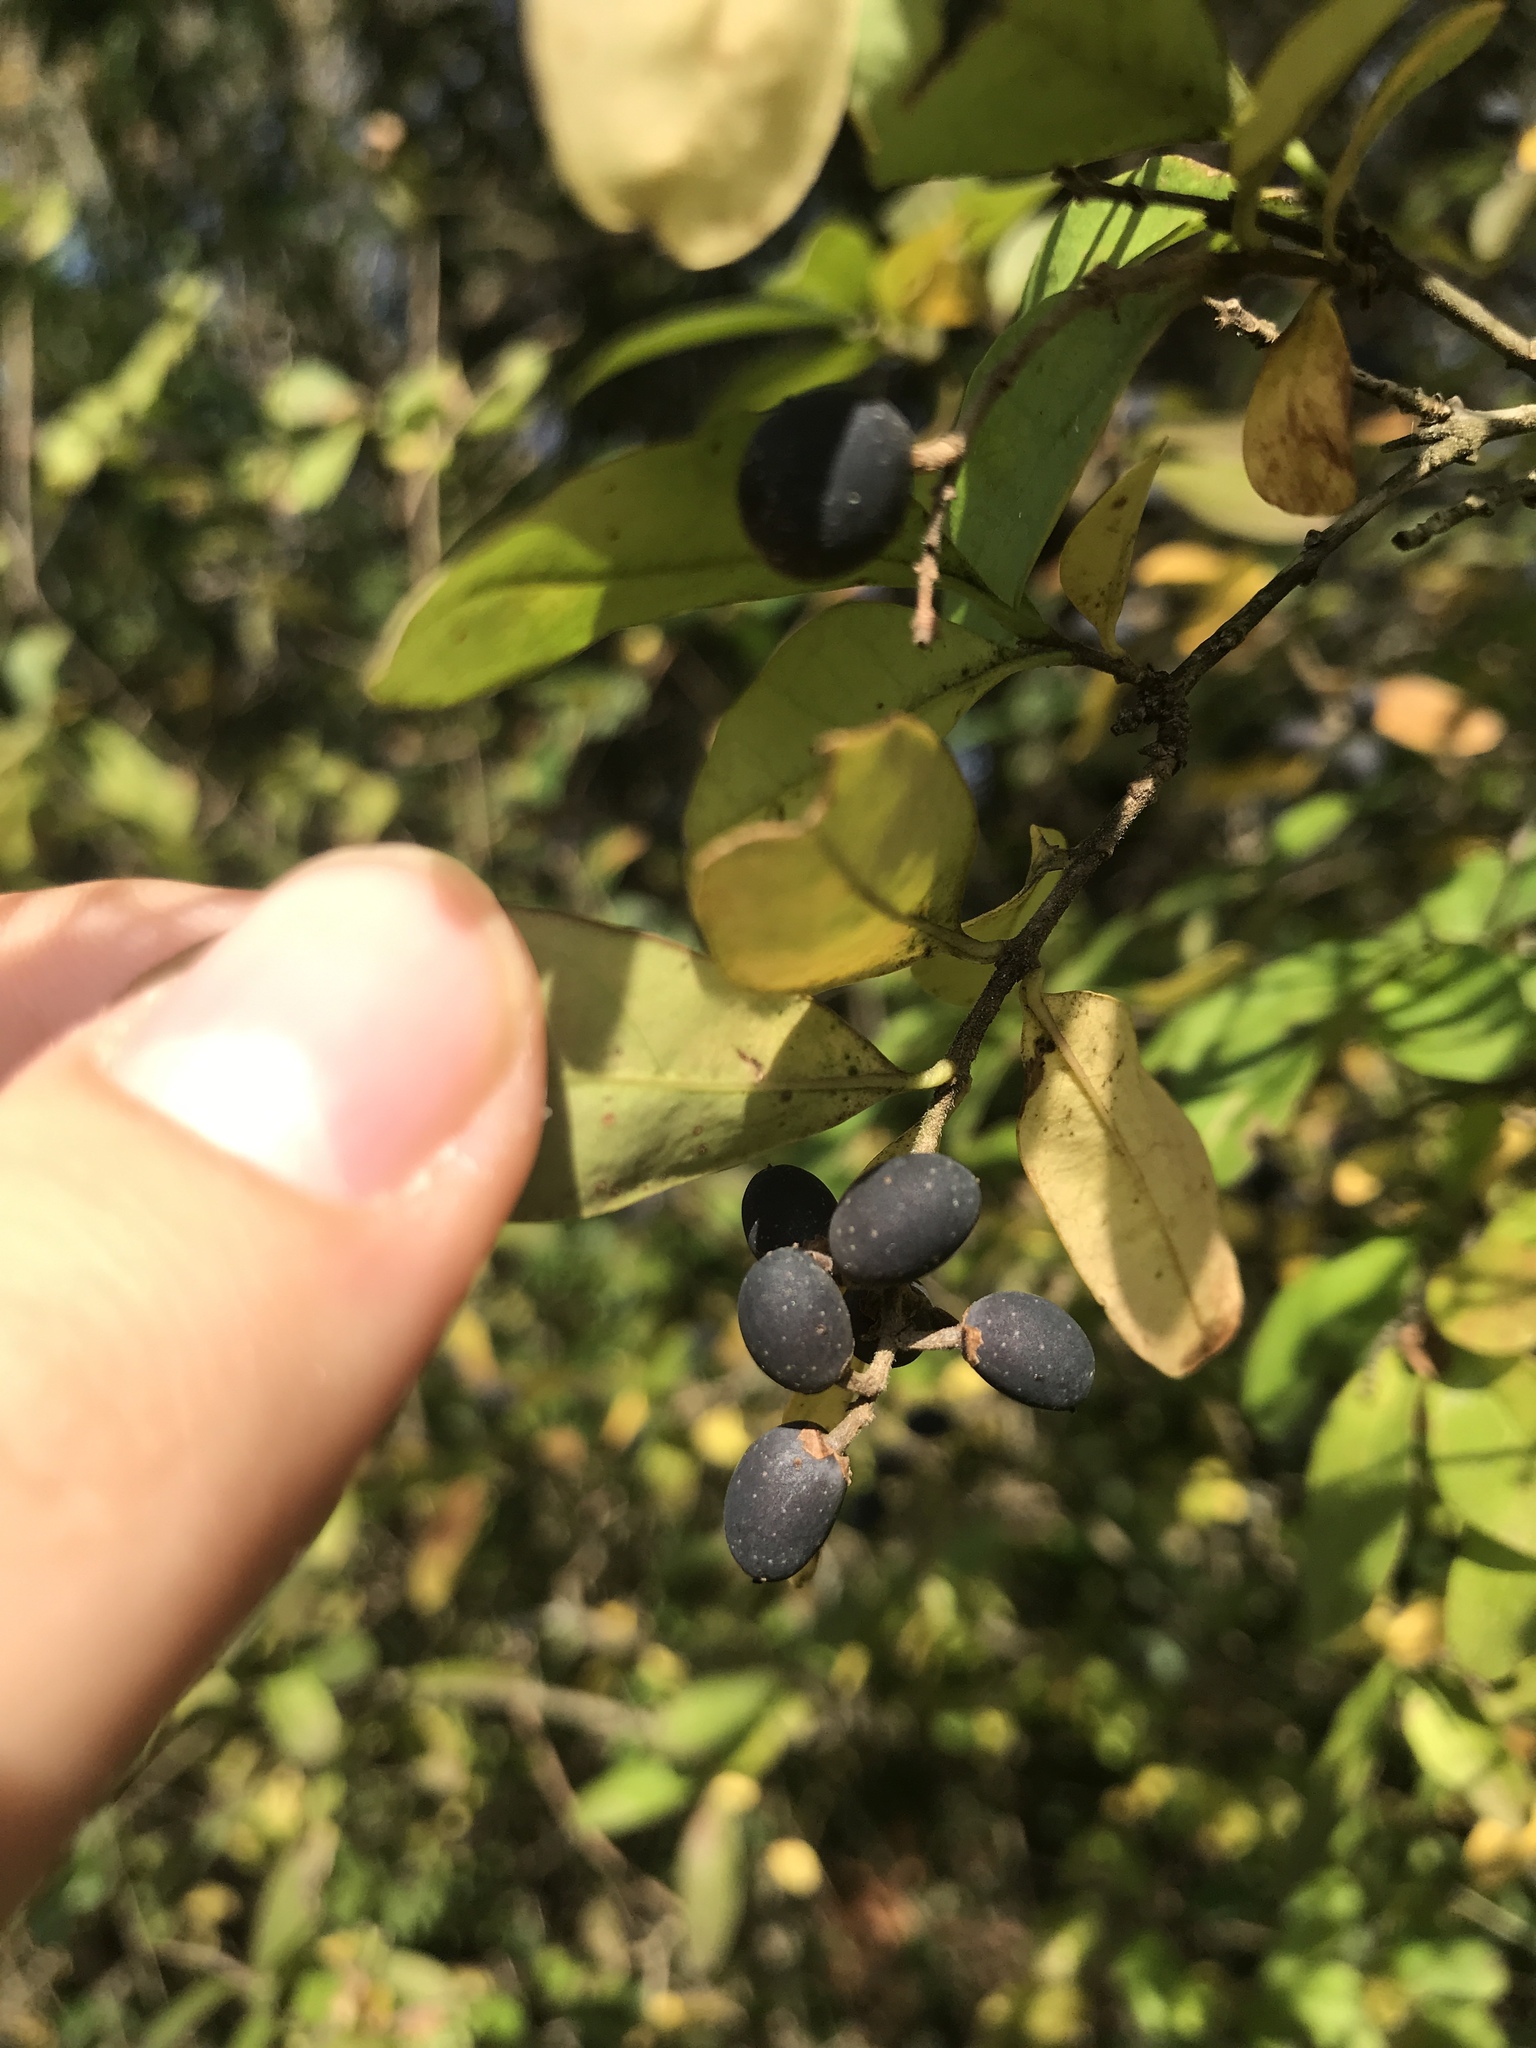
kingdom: Plantae
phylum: Tracheophyta
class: Magnoliopsida
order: Lamiales
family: Oleaceae
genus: Ligustrum
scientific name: Ligustrum obtusifolium
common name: Border privet
